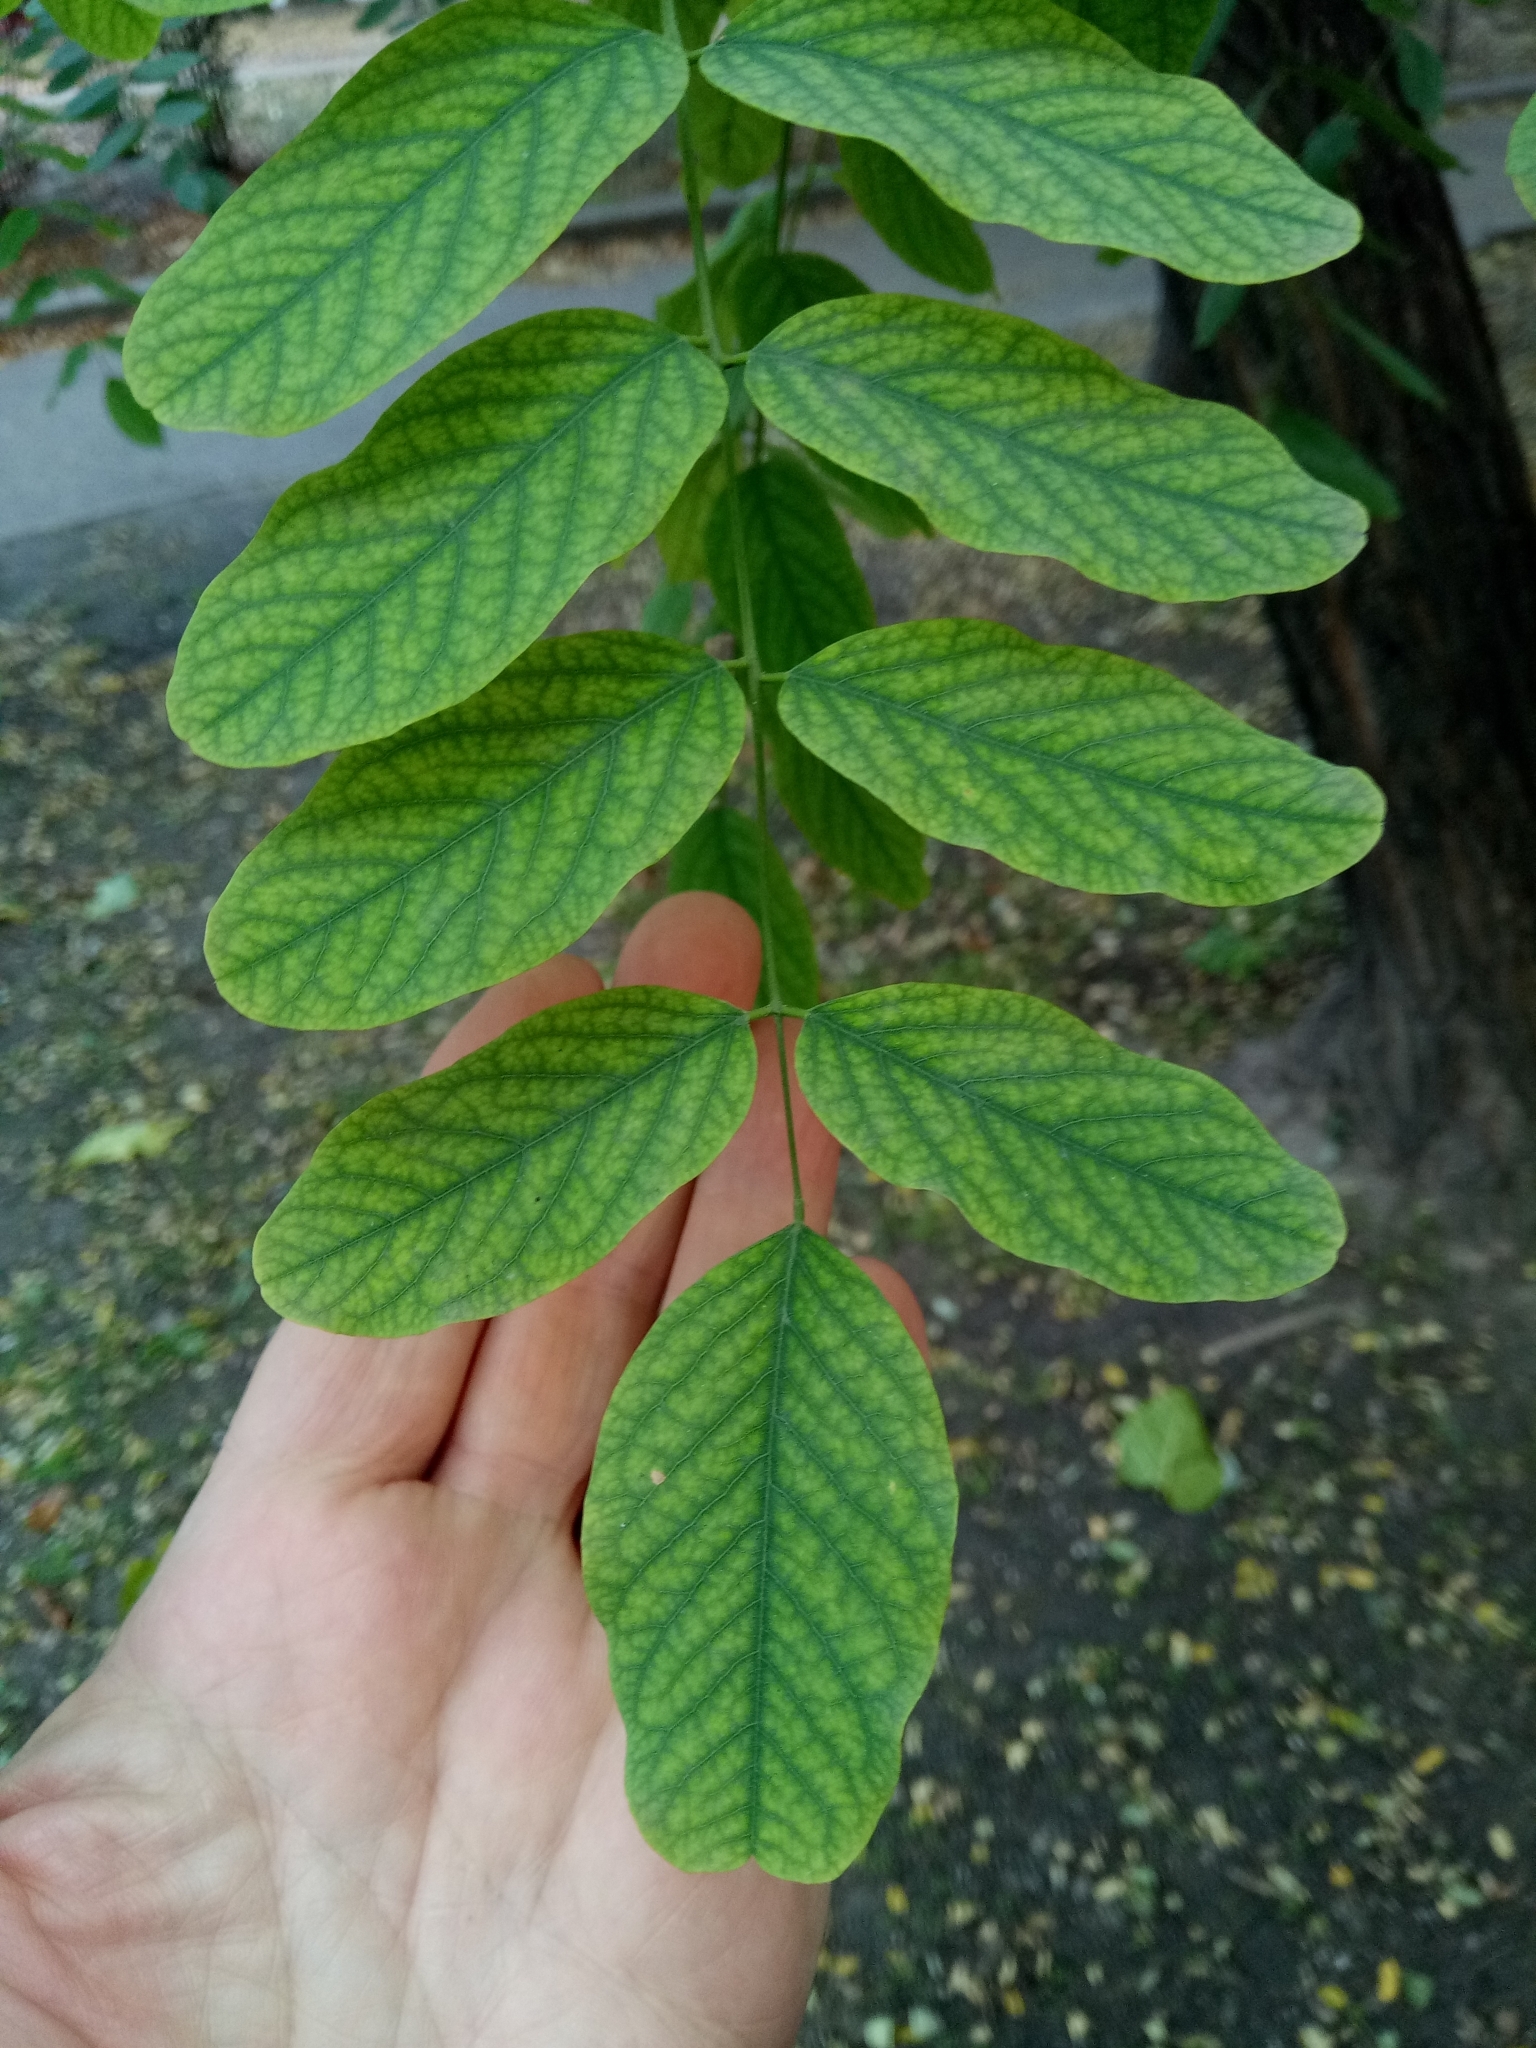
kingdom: Plantae
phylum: Tracheophyta
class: Magnoliopsida
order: Fabales
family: Fabaceae
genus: Robinia
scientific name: Robinia pseudoacacia
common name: Black locust
